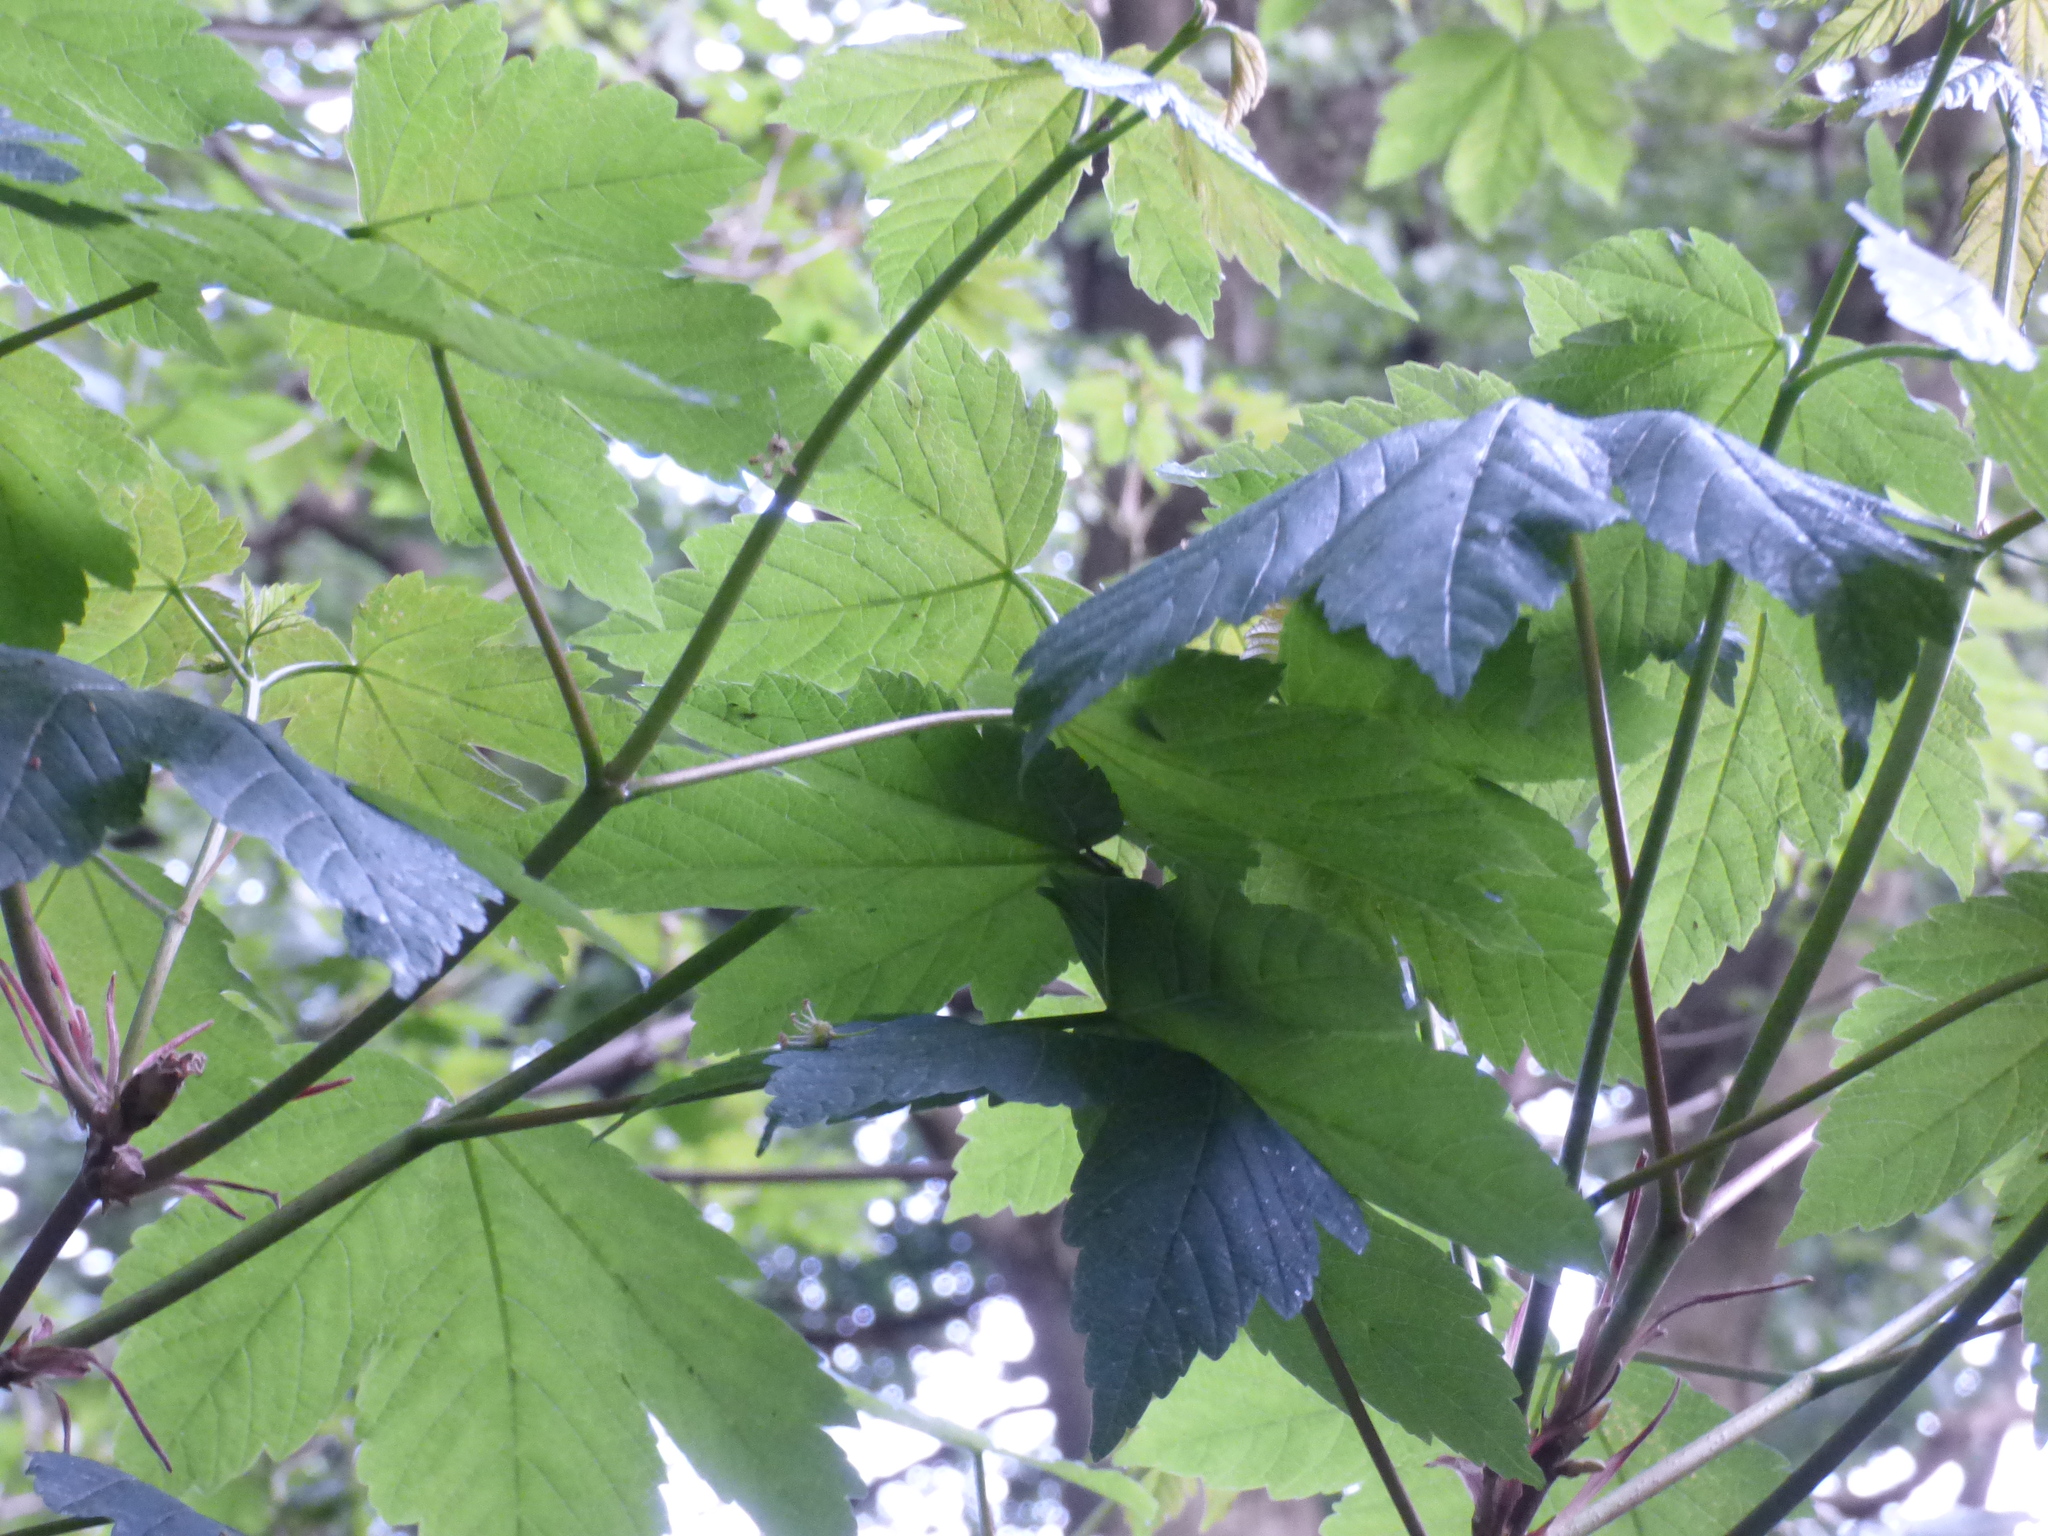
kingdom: Plantae
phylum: Tracheophyta
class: Magnoliopsida
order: Sapindales
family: Sapindaceae
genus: Acer
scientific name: Acer pseudoplatanus
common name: Sycamore
